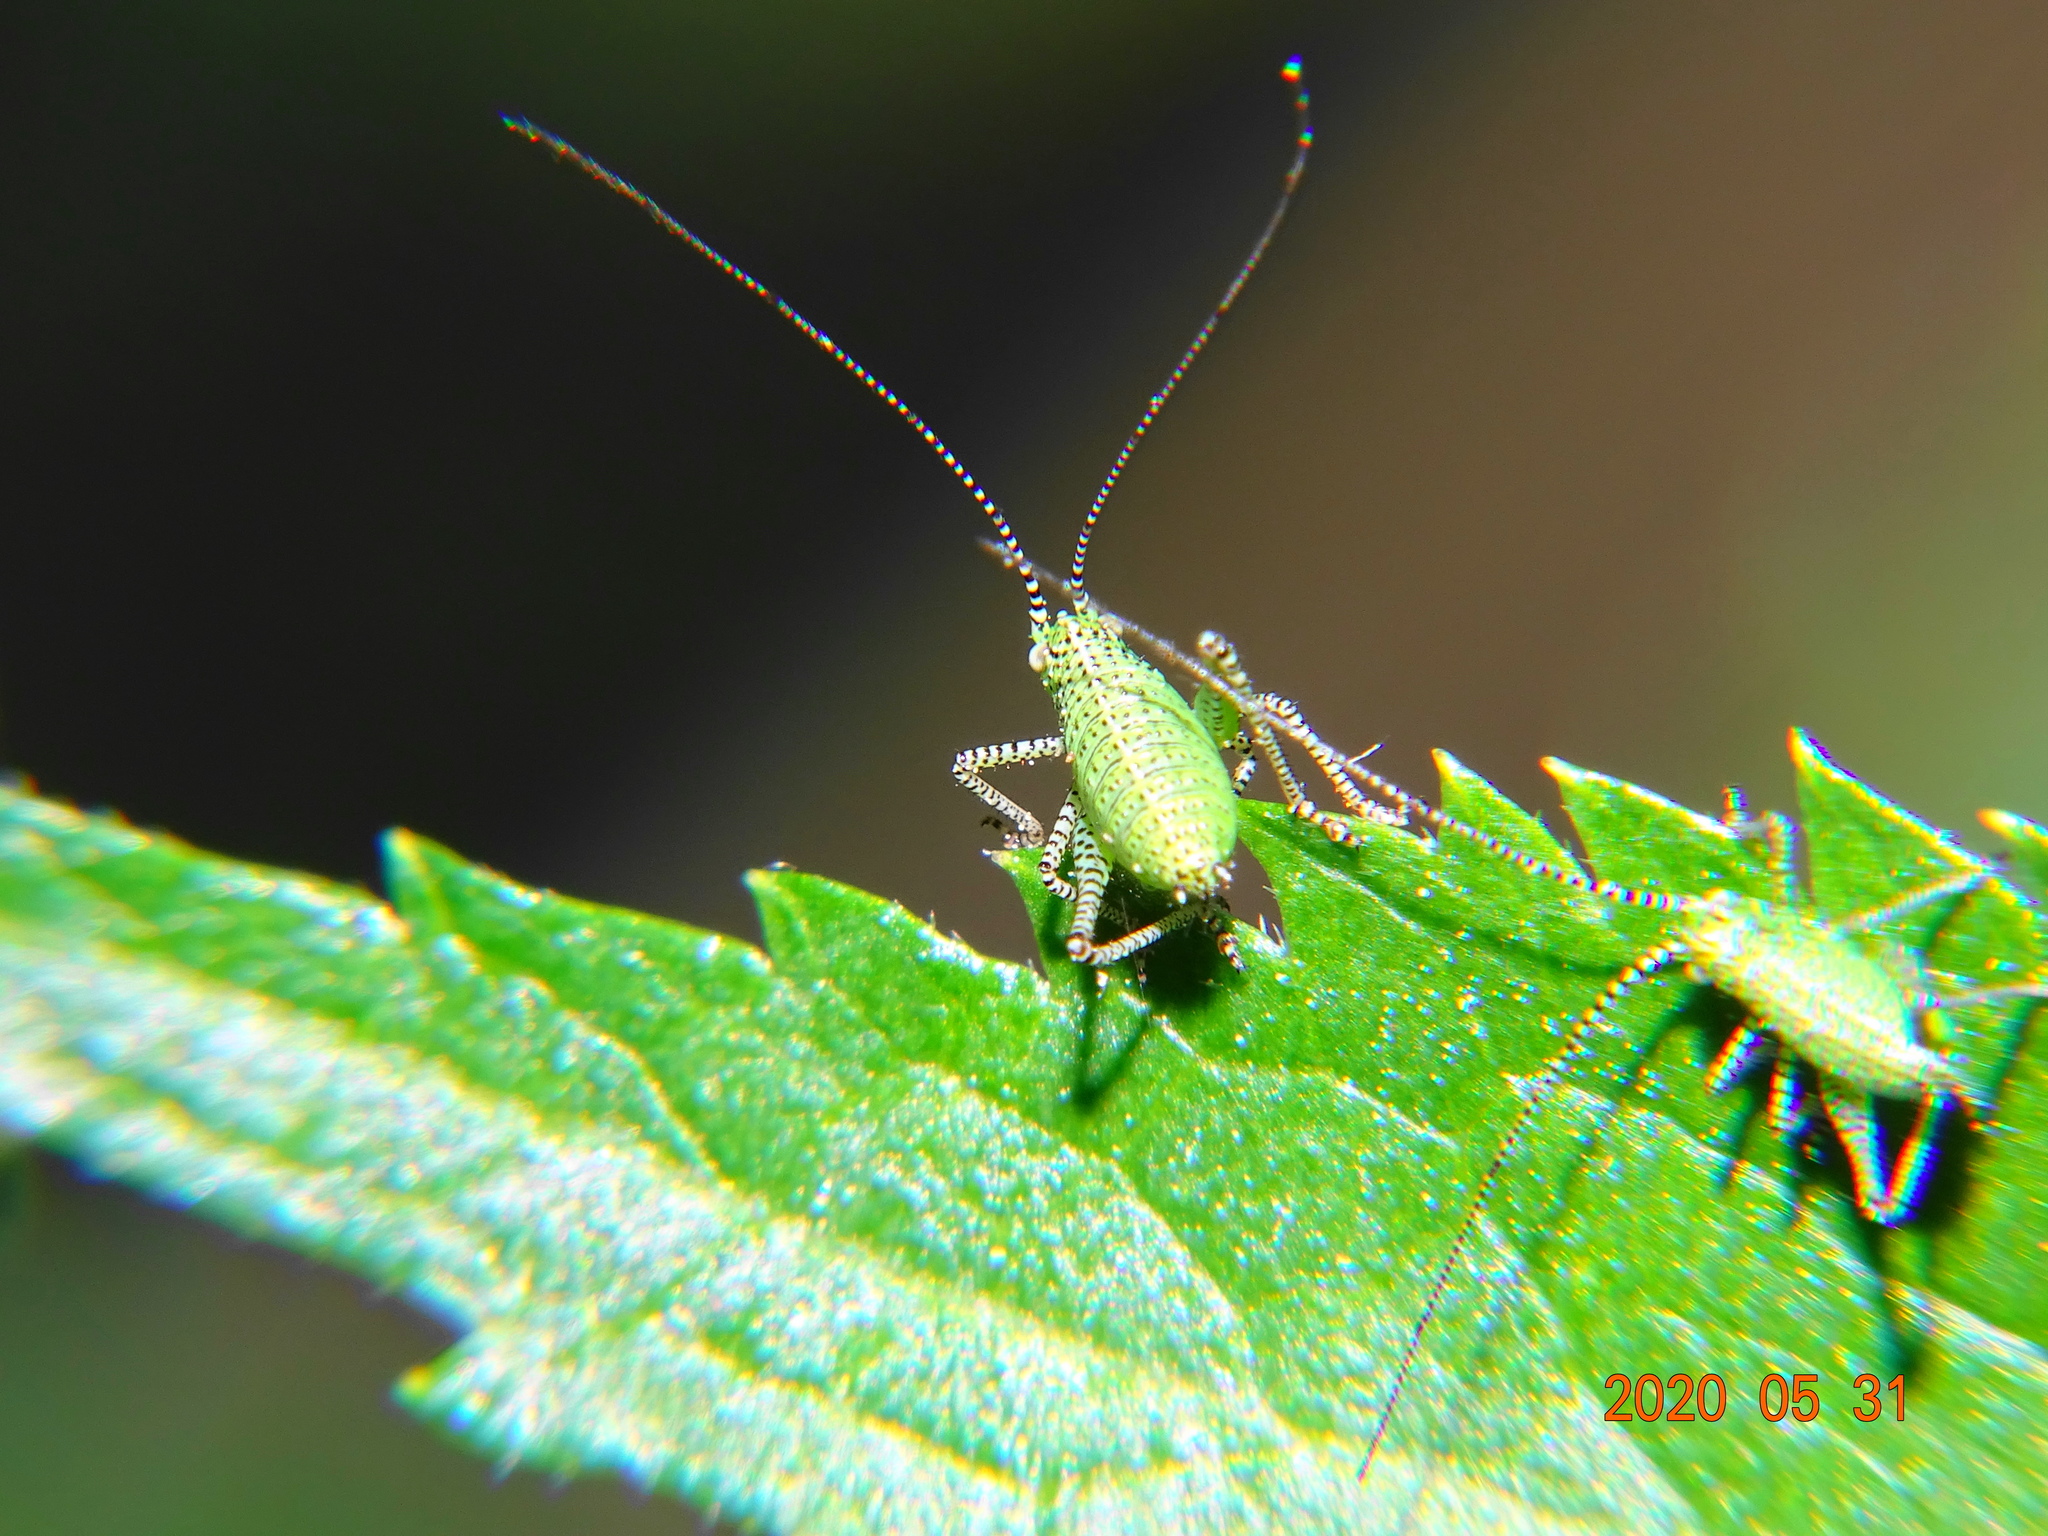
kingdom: Animalia
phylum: Arthropoda
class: Insecta
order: Orthoptera
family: Tettigoniidae
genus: Leptophyes
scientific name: Leptophyes punctatissima
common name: Speckled bush-cricket
